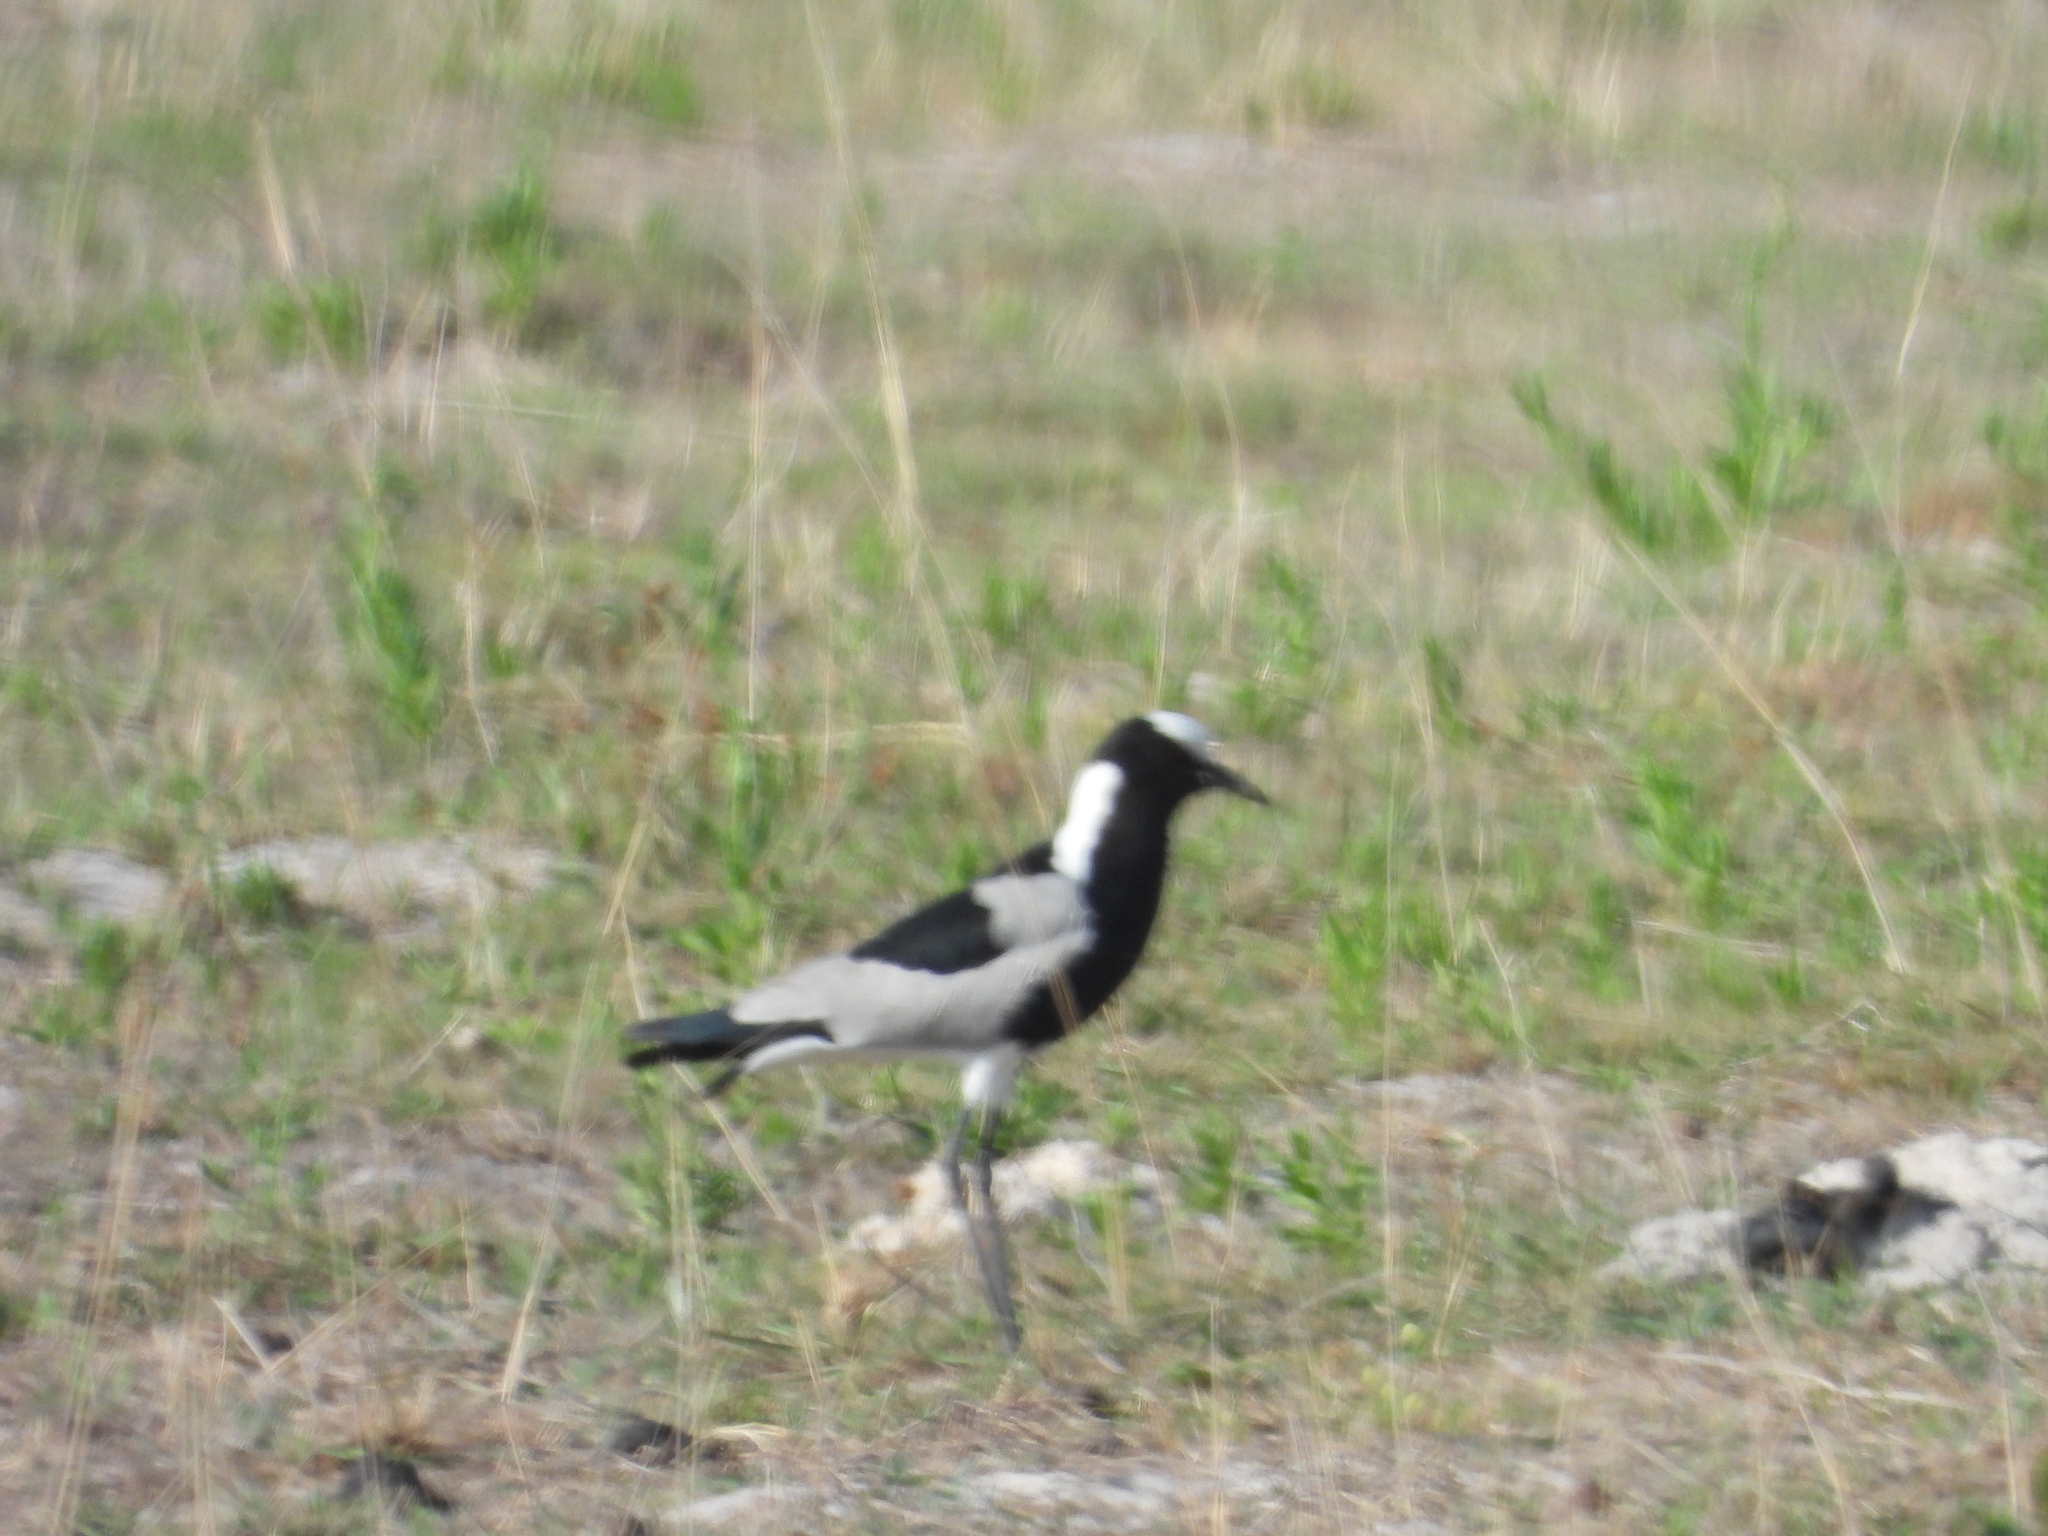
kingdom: Animalia
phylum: Chordata
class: Aves
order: Charadriiformes
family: Charadriidae
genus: Vanellus
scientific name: Vanellus armatus
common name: Blacksmith lapwing
